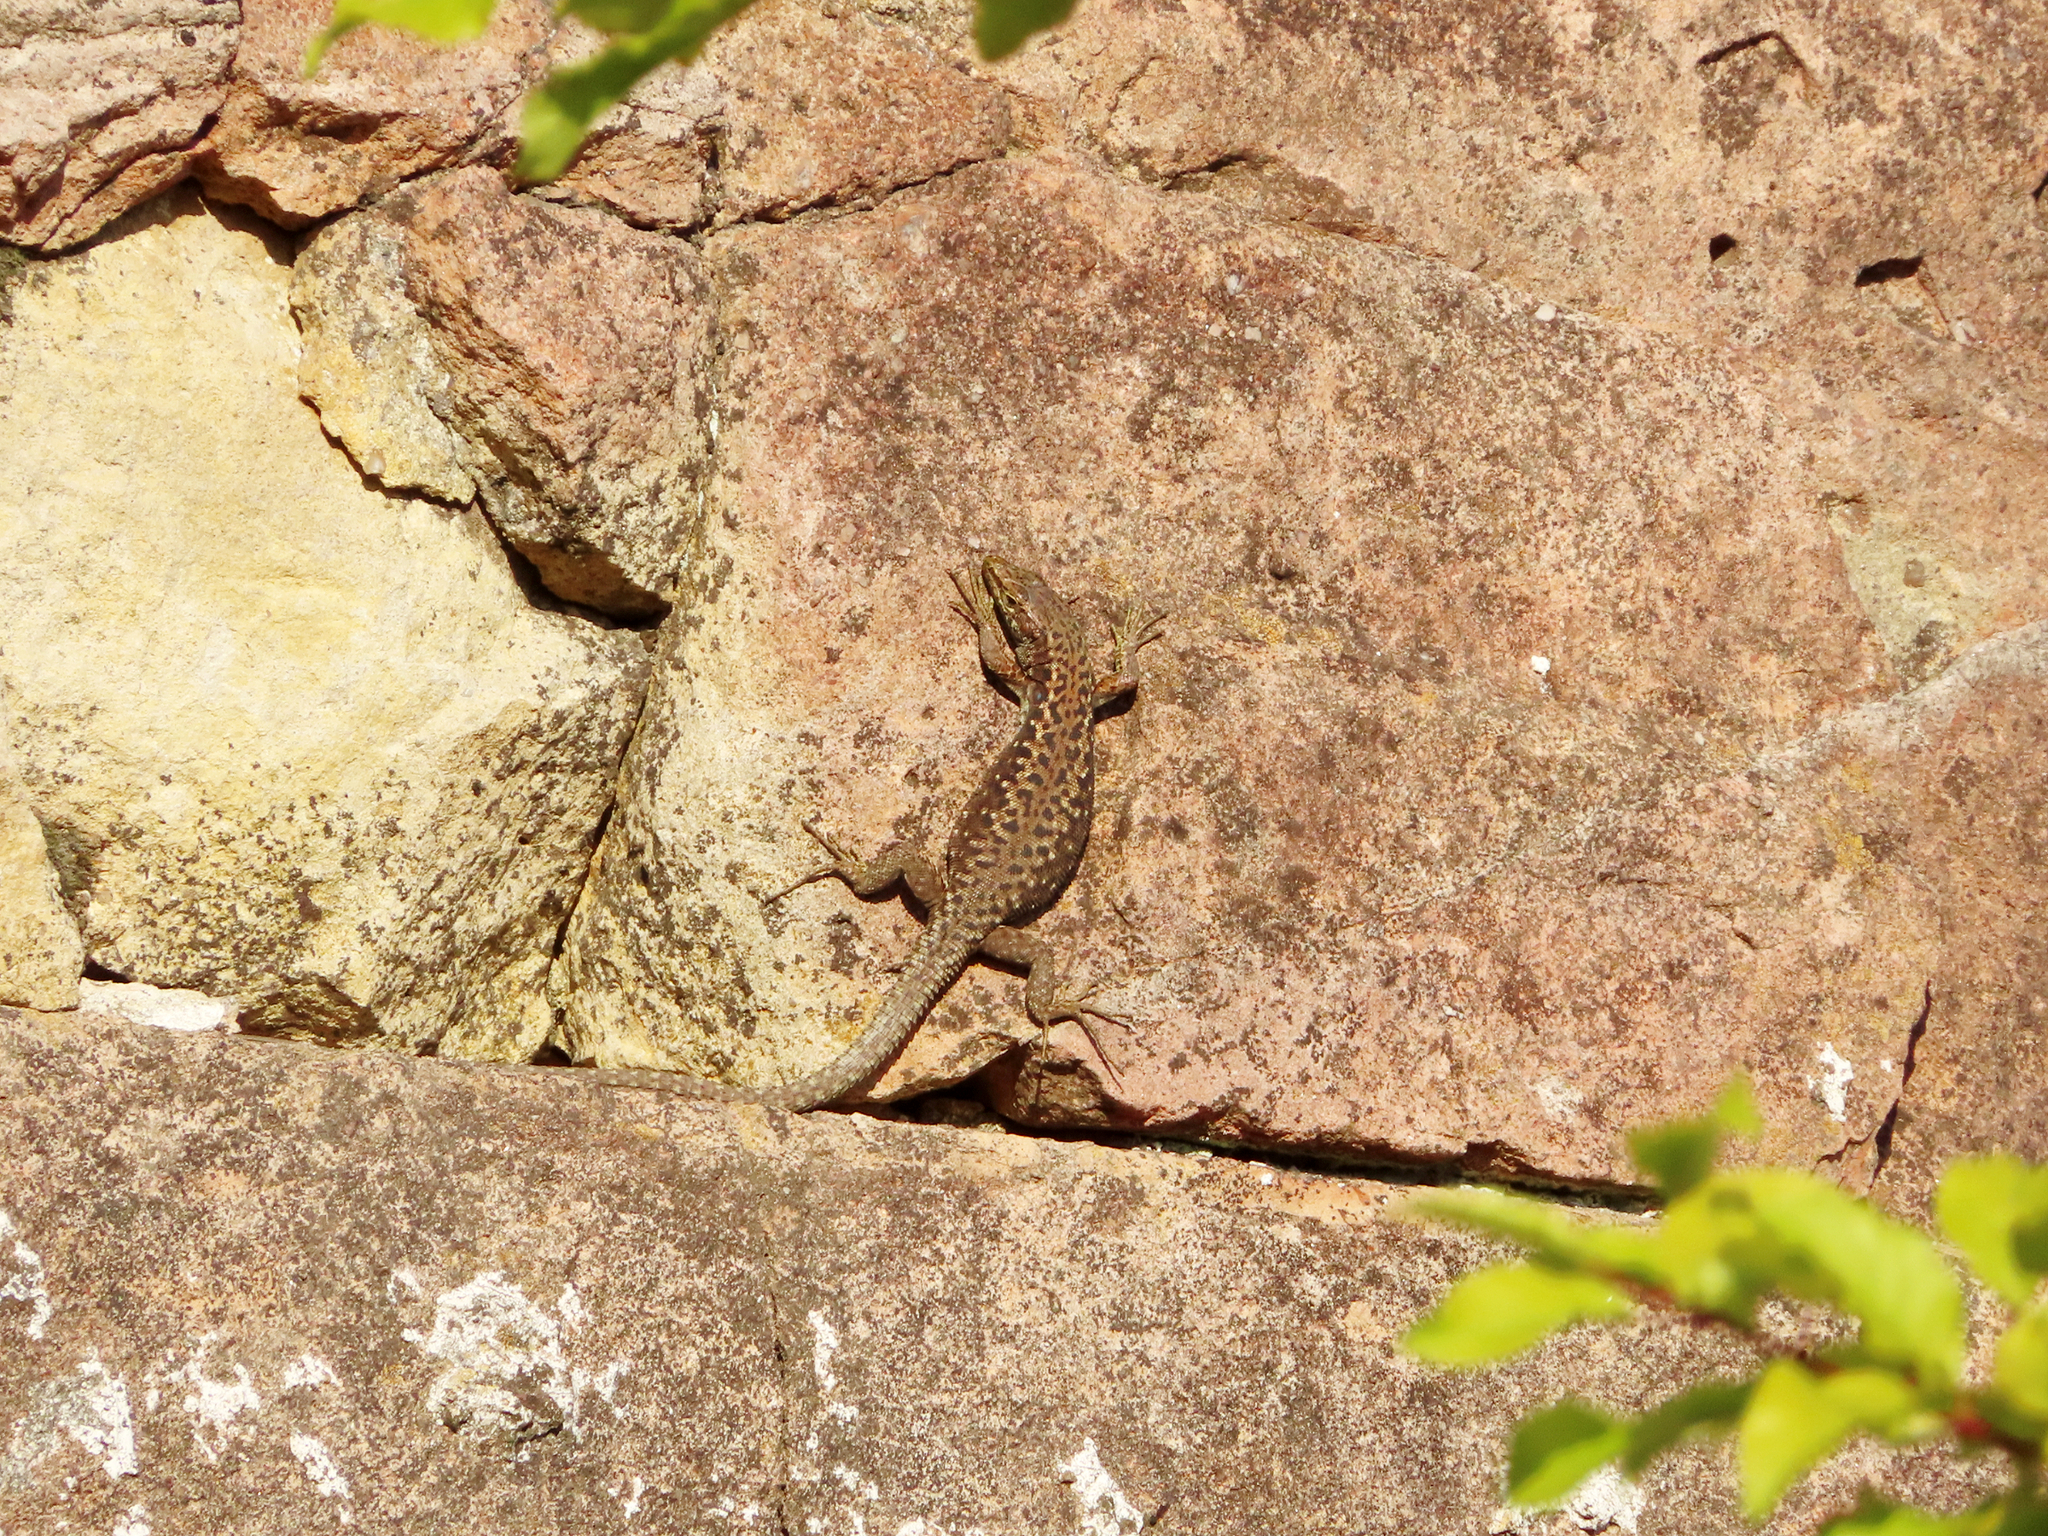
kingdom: Animalia
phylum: Chordata
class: Squamata
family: Lacertidae
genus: Darevskia
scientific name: Darevskia rudis
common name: Spiny-tailed lizard
